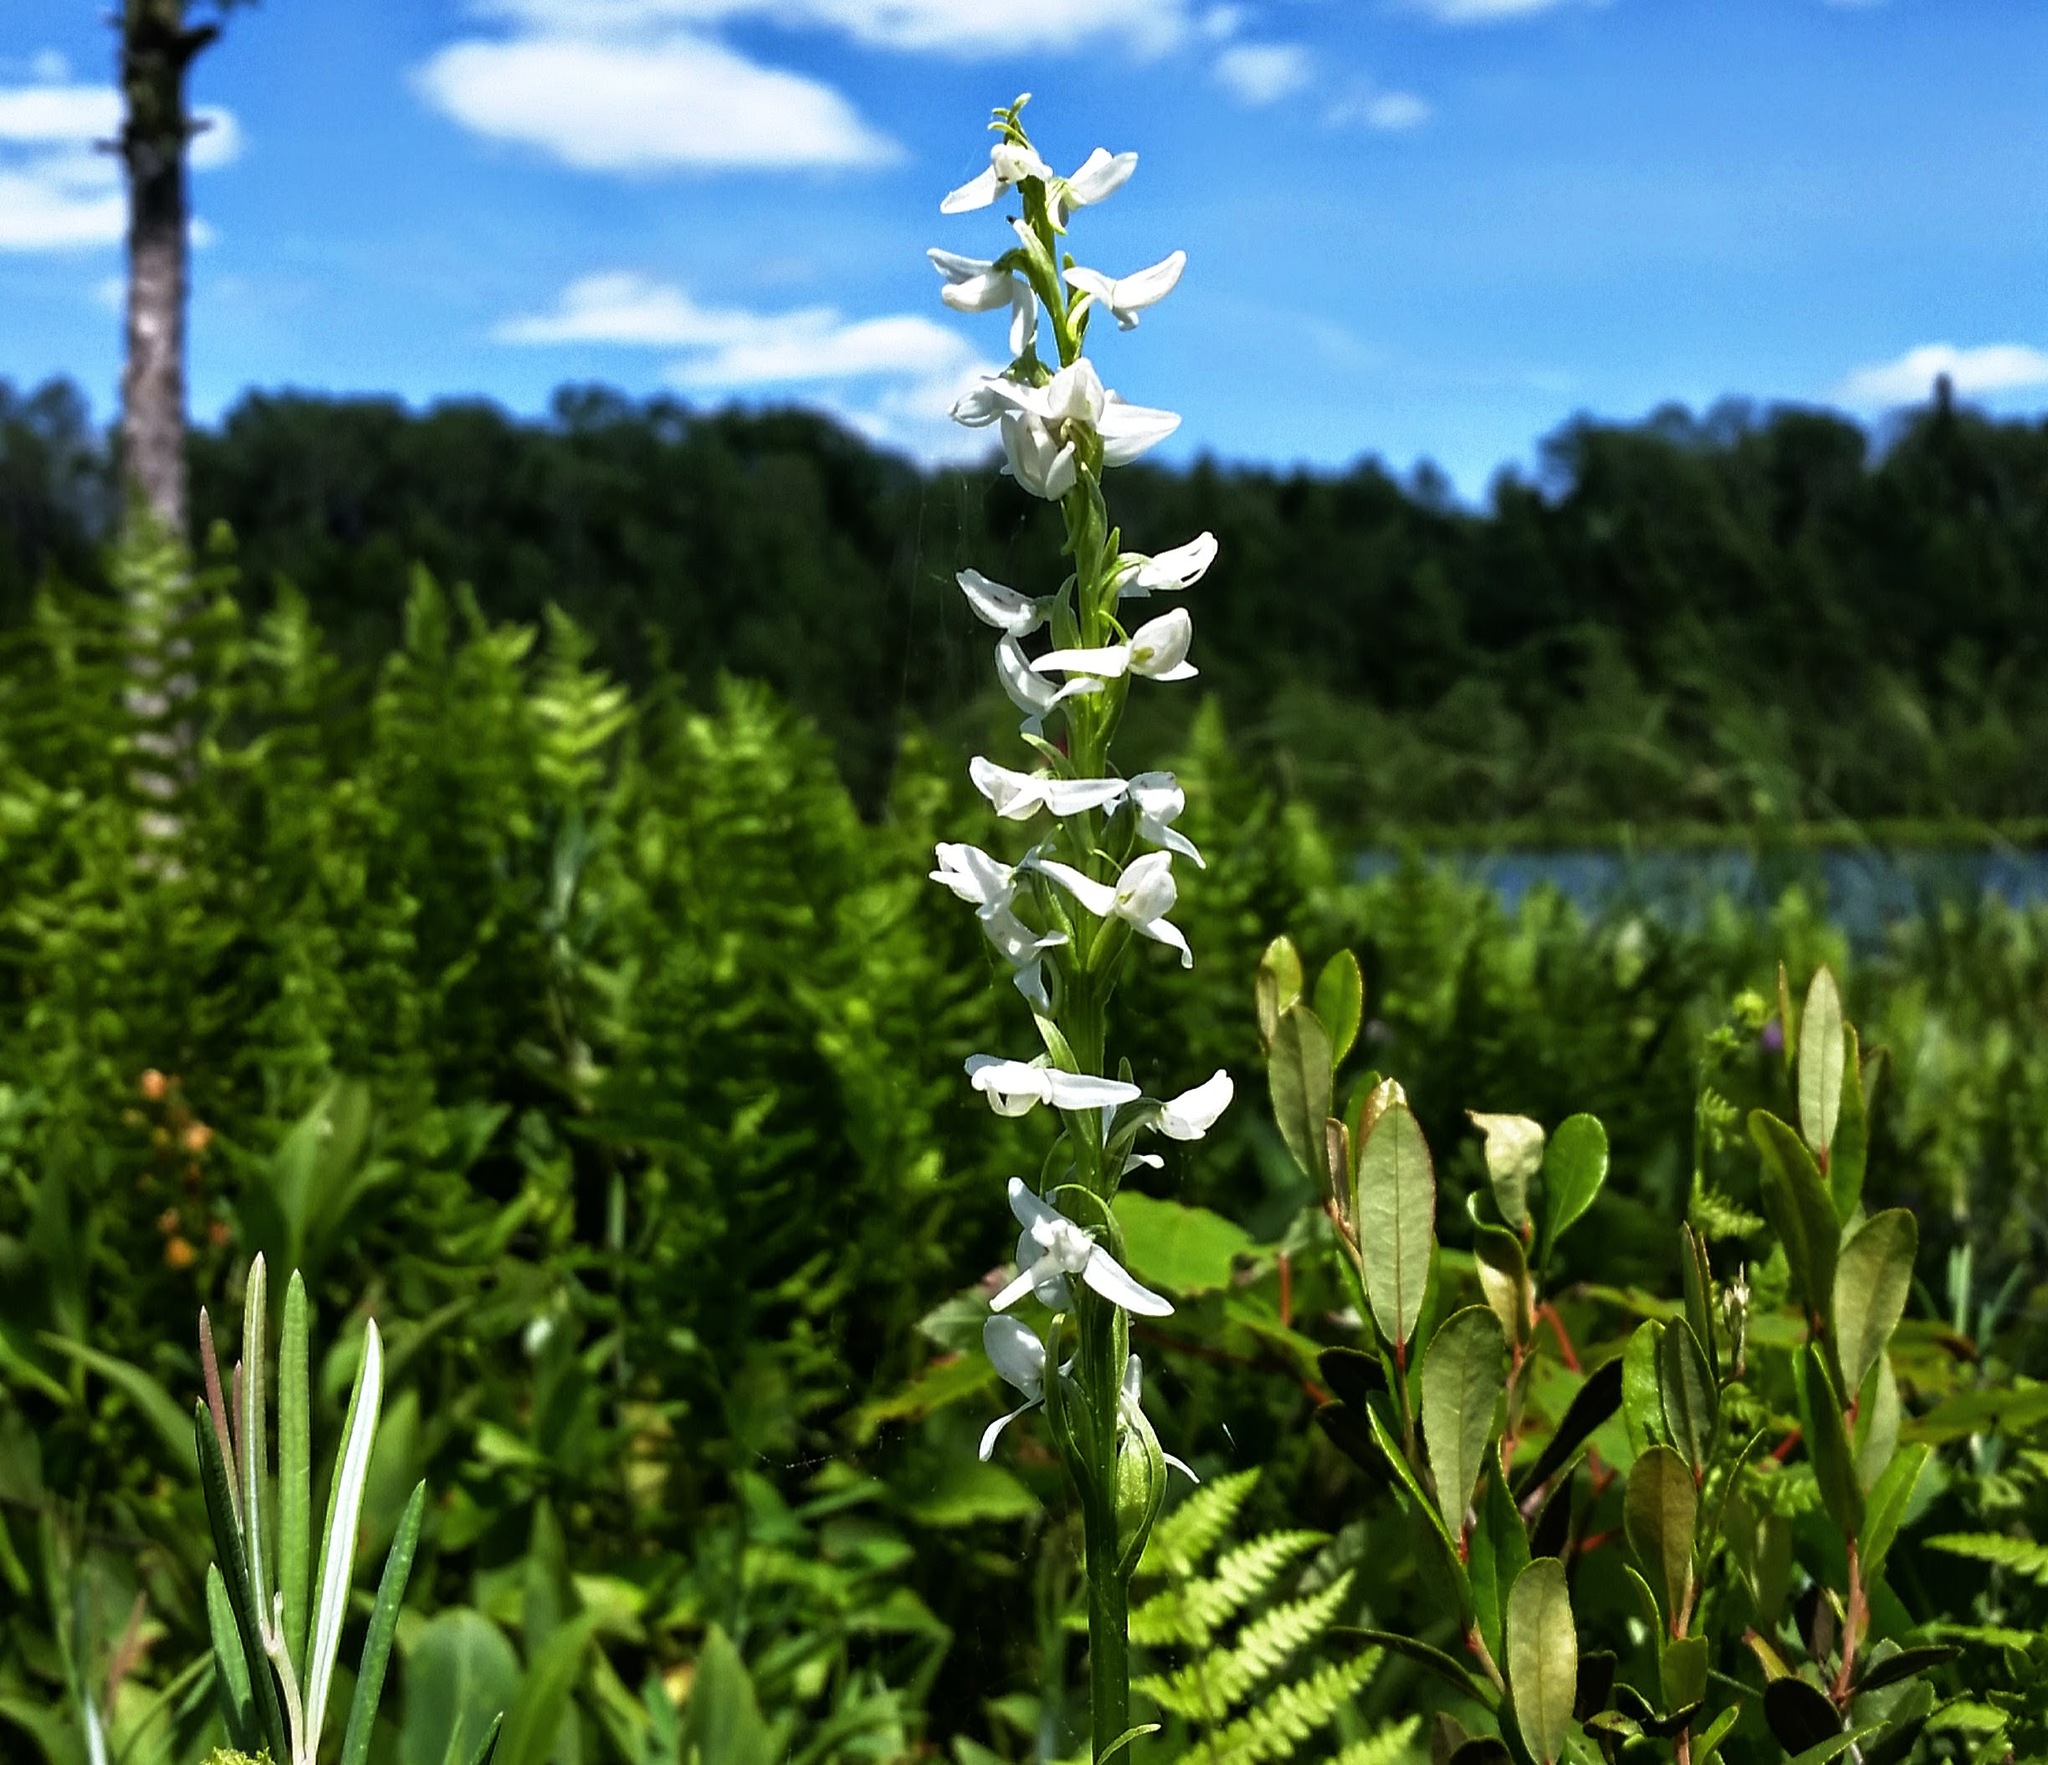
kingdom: Plantae
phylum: Tracheophyta
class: Liliopsida
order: Asparagales
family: Orchidaceae
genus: Platanthera
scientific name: Platanthera dilatata
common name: Bog candles
